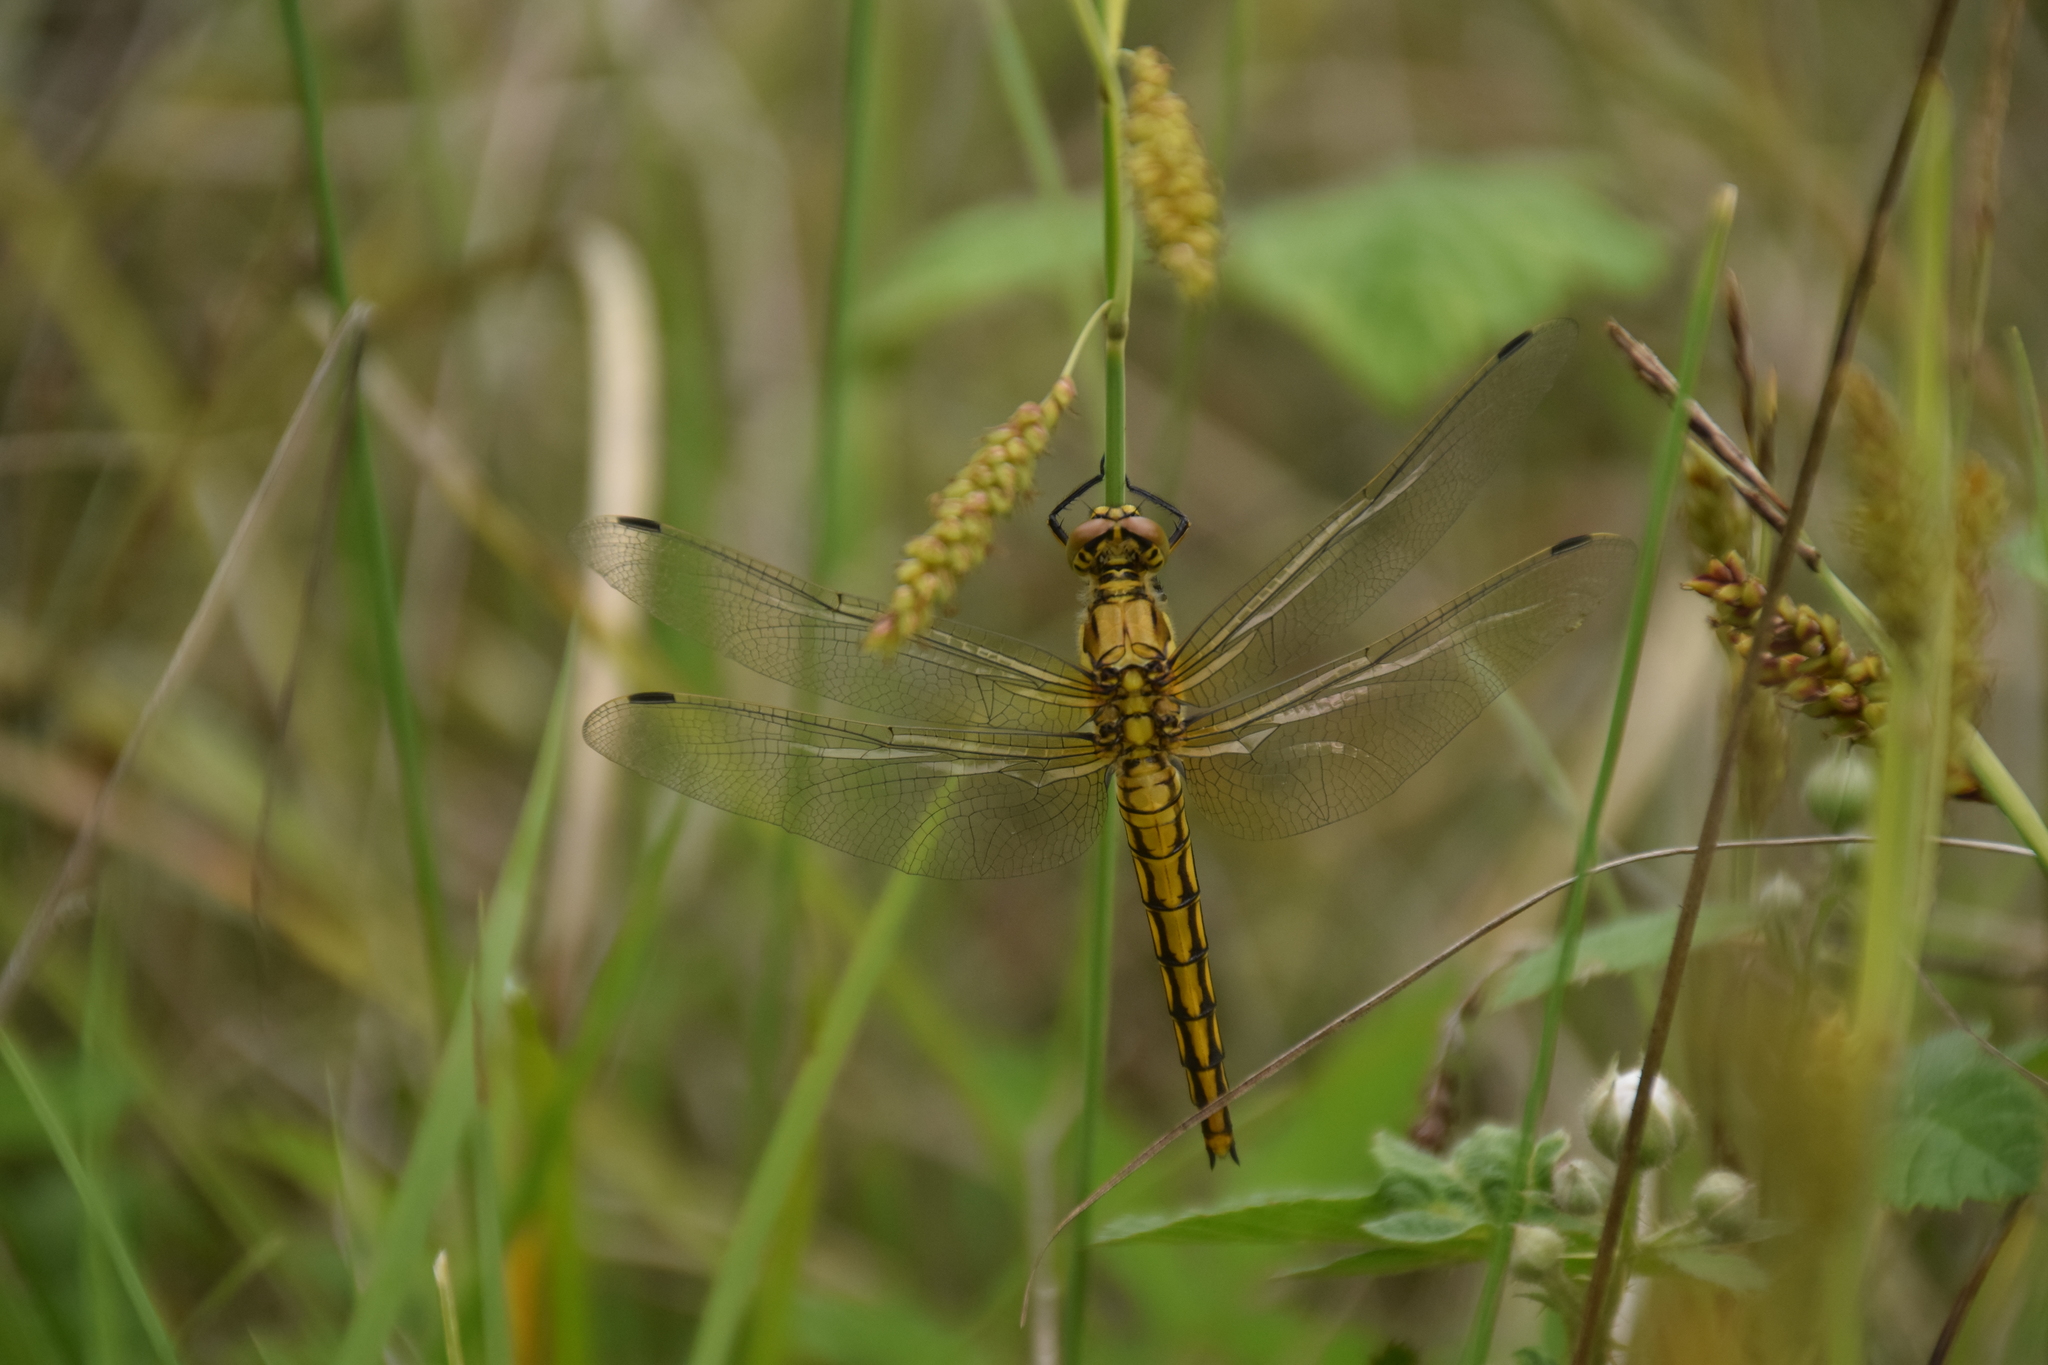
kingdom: Animalia
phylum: Arthropoda
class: Insecta
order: Odonata
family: Libellulidae
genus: Orthetrum
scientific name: Orthetrum cancellatum
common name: Black-tailed skimmer
